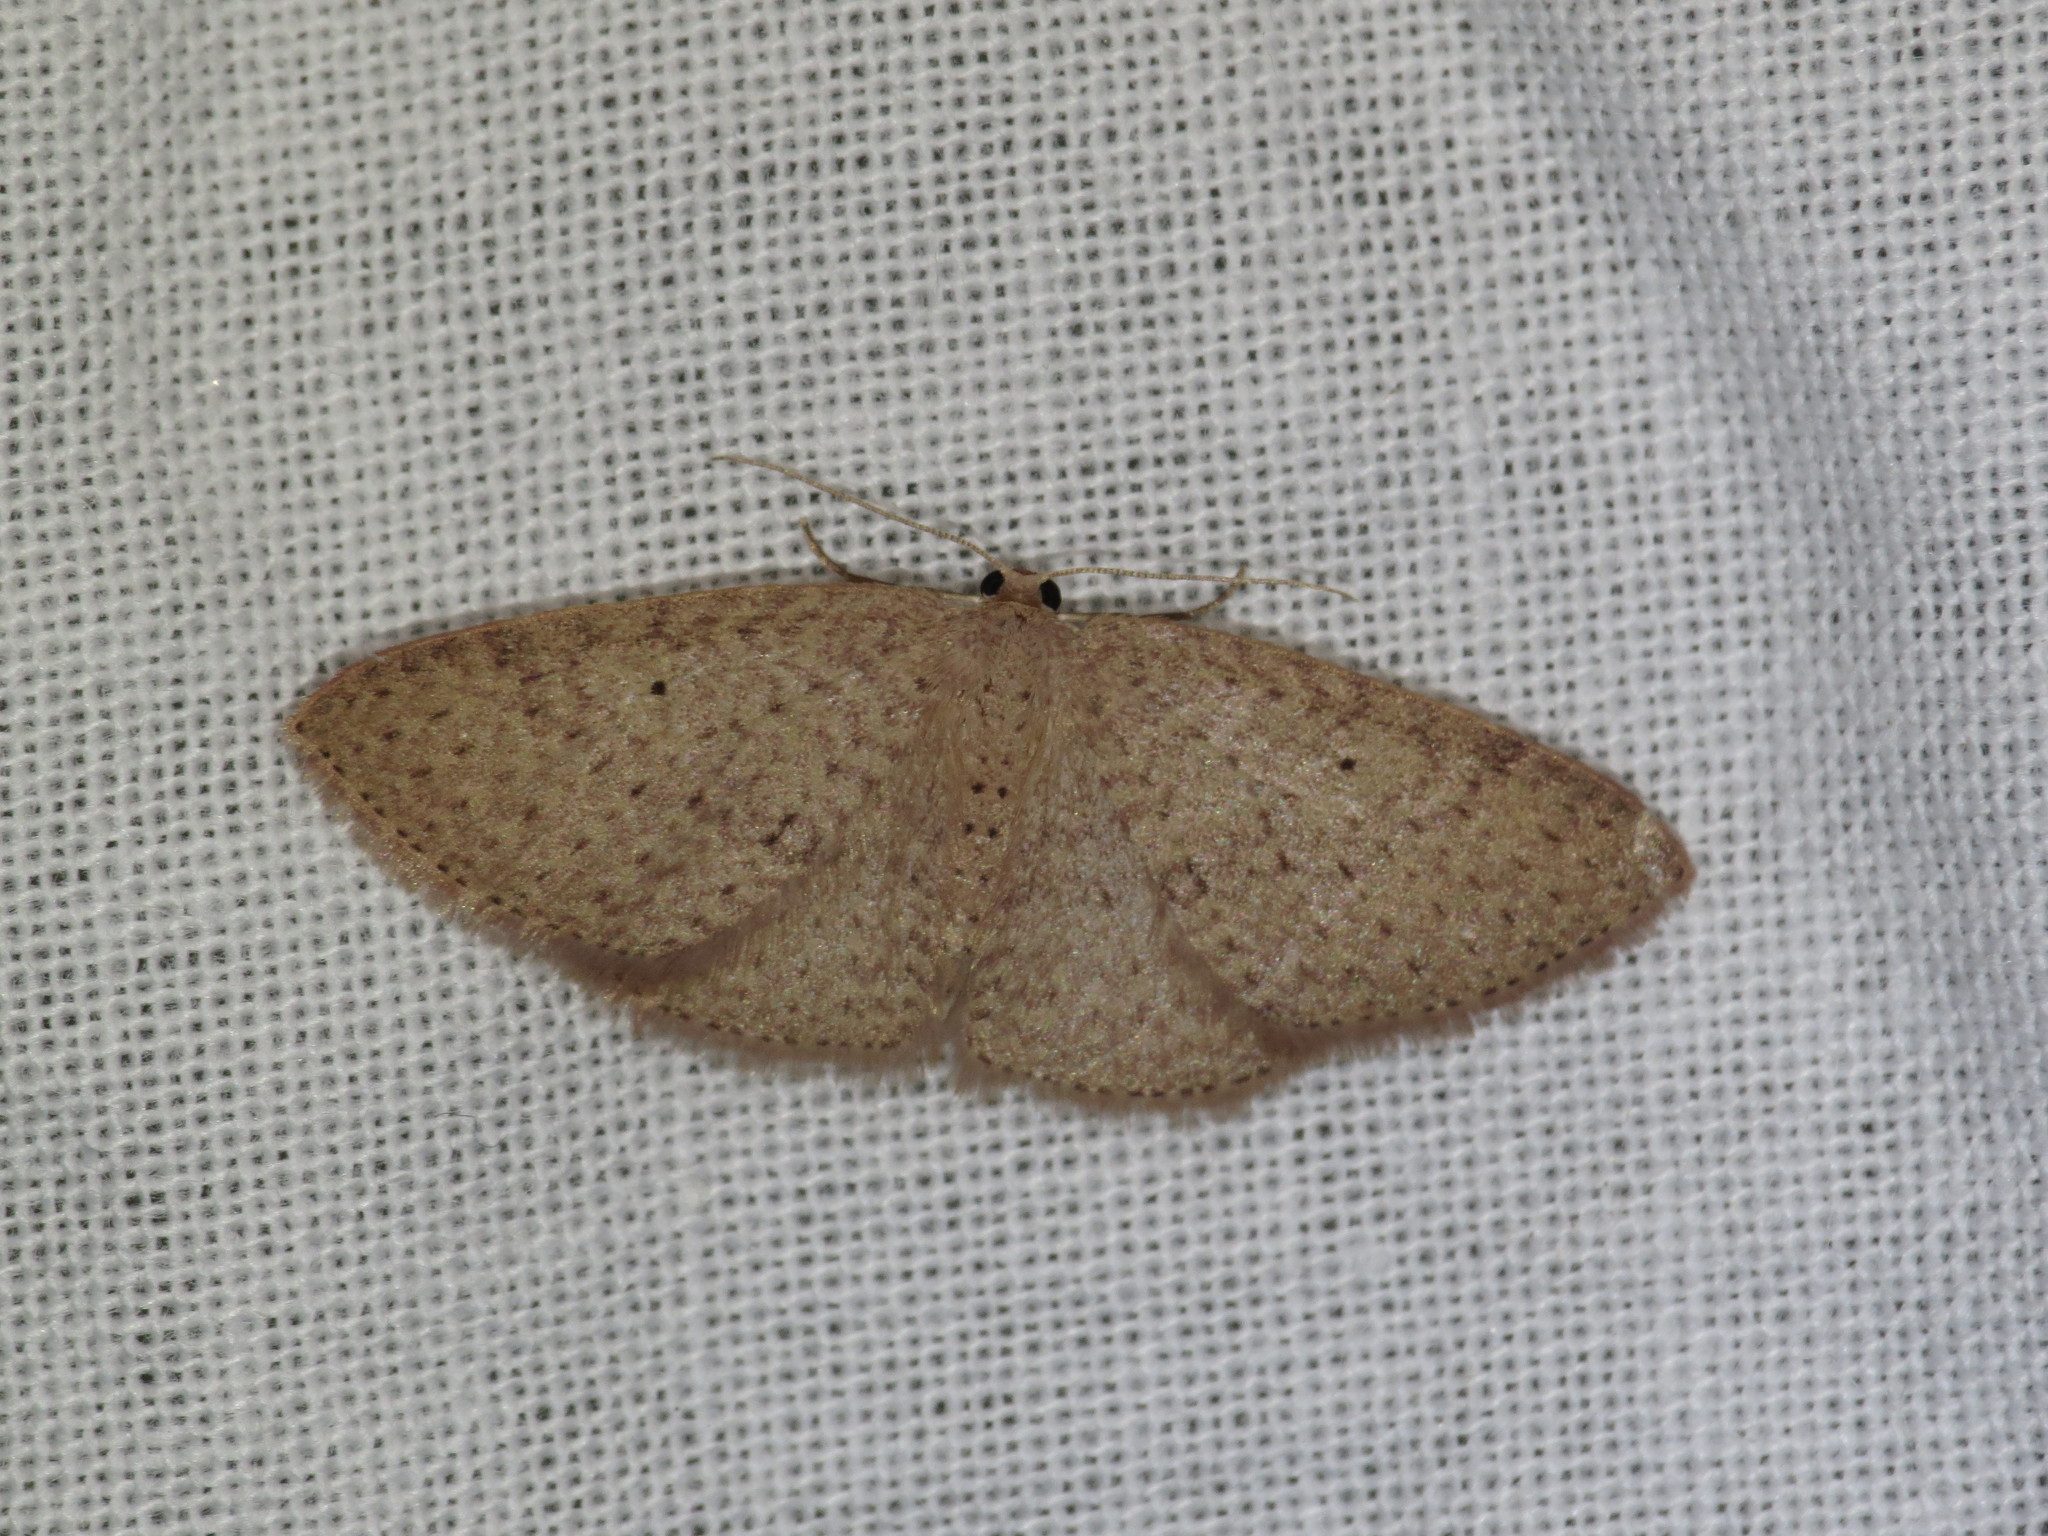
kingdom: Animalia
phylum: Arthropoda
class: Insecta
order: Lepidoptera
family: Geometridae
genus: Poecilasthena
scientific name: Poecilasthena anthodes
